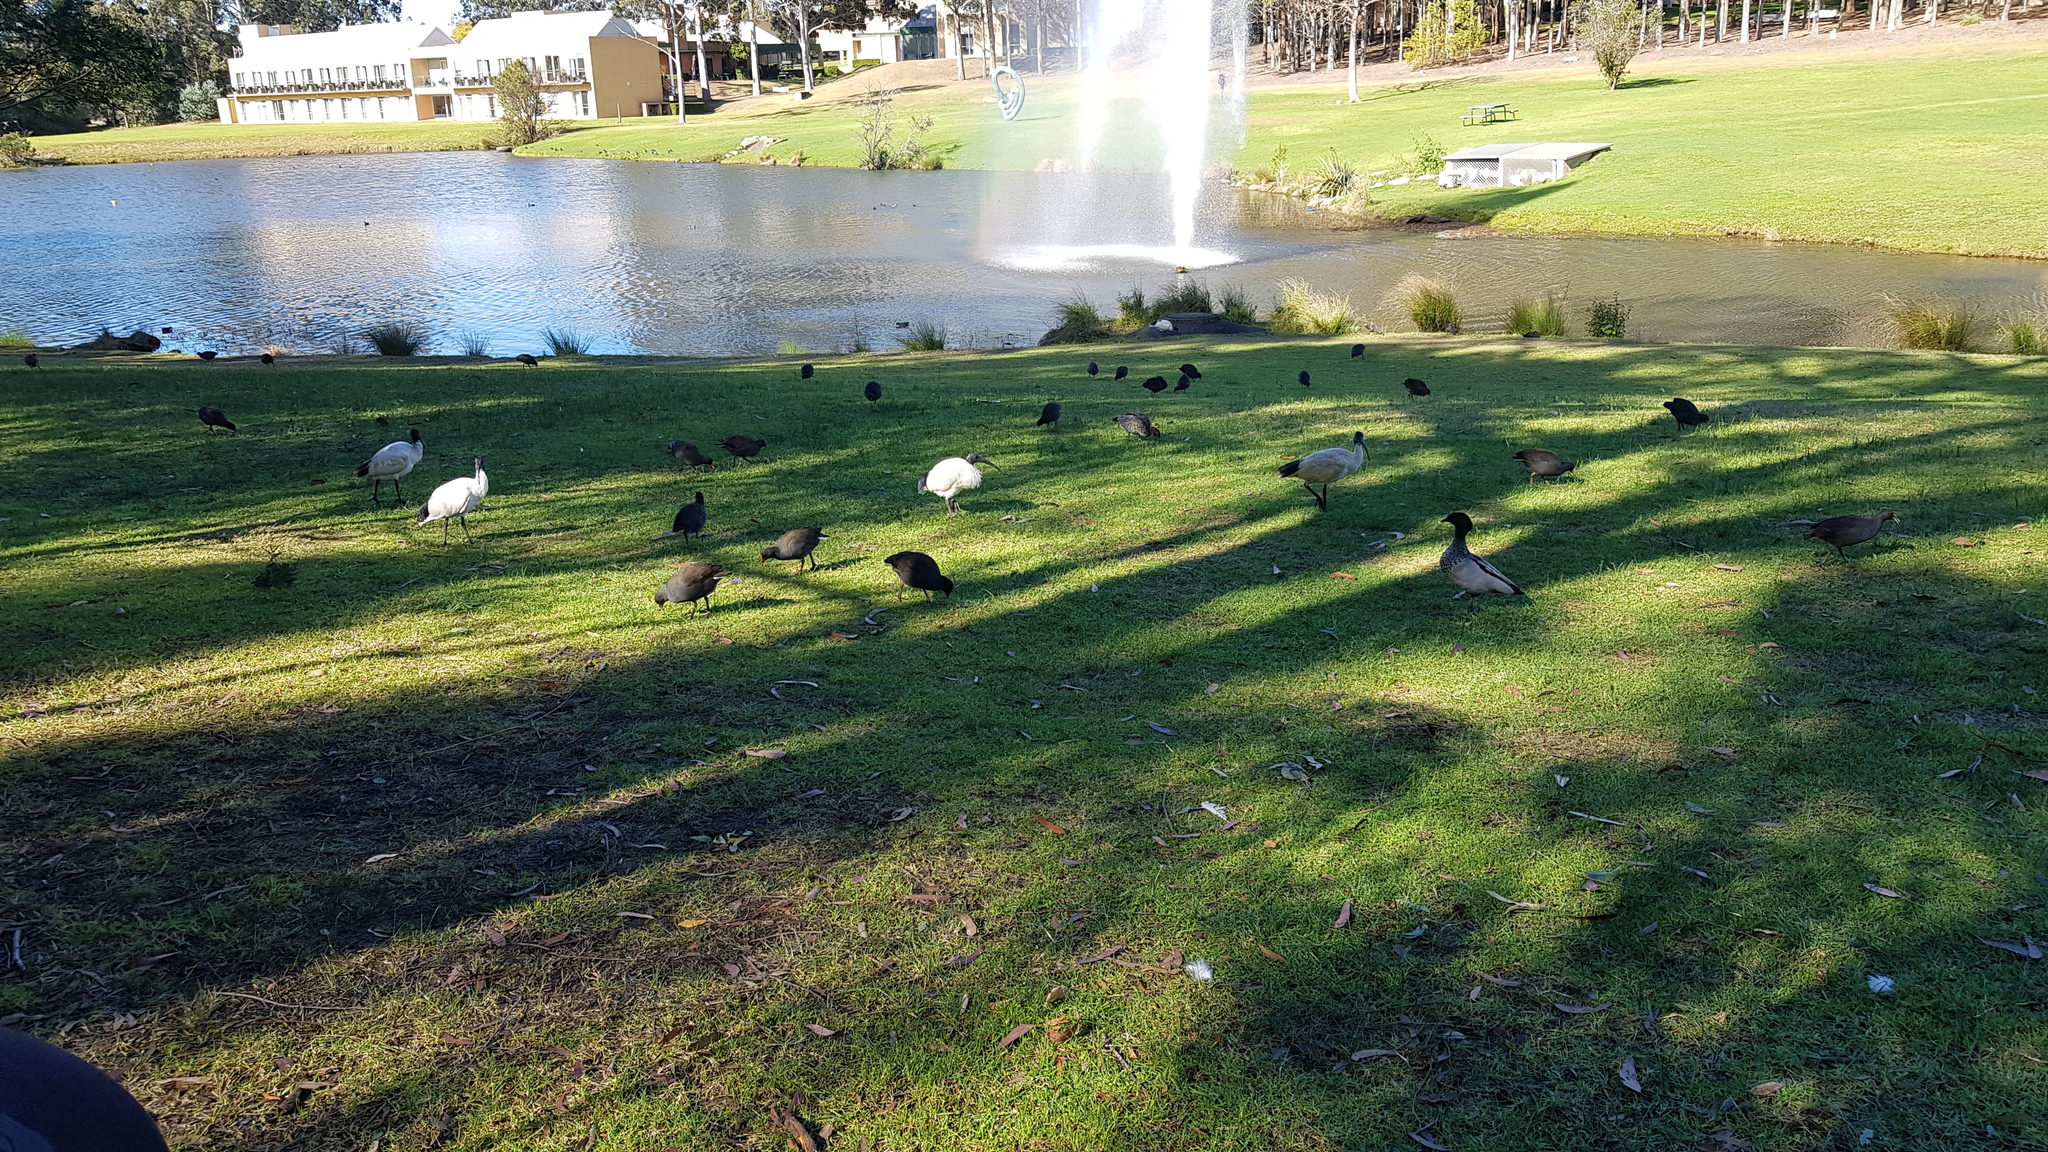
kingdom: Animalia
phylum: Chordata
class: Aves
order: Gruiformes
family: Rallidae
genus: Gallinula
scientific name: Gallinula tenebrosa
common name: Dusky moorhen
